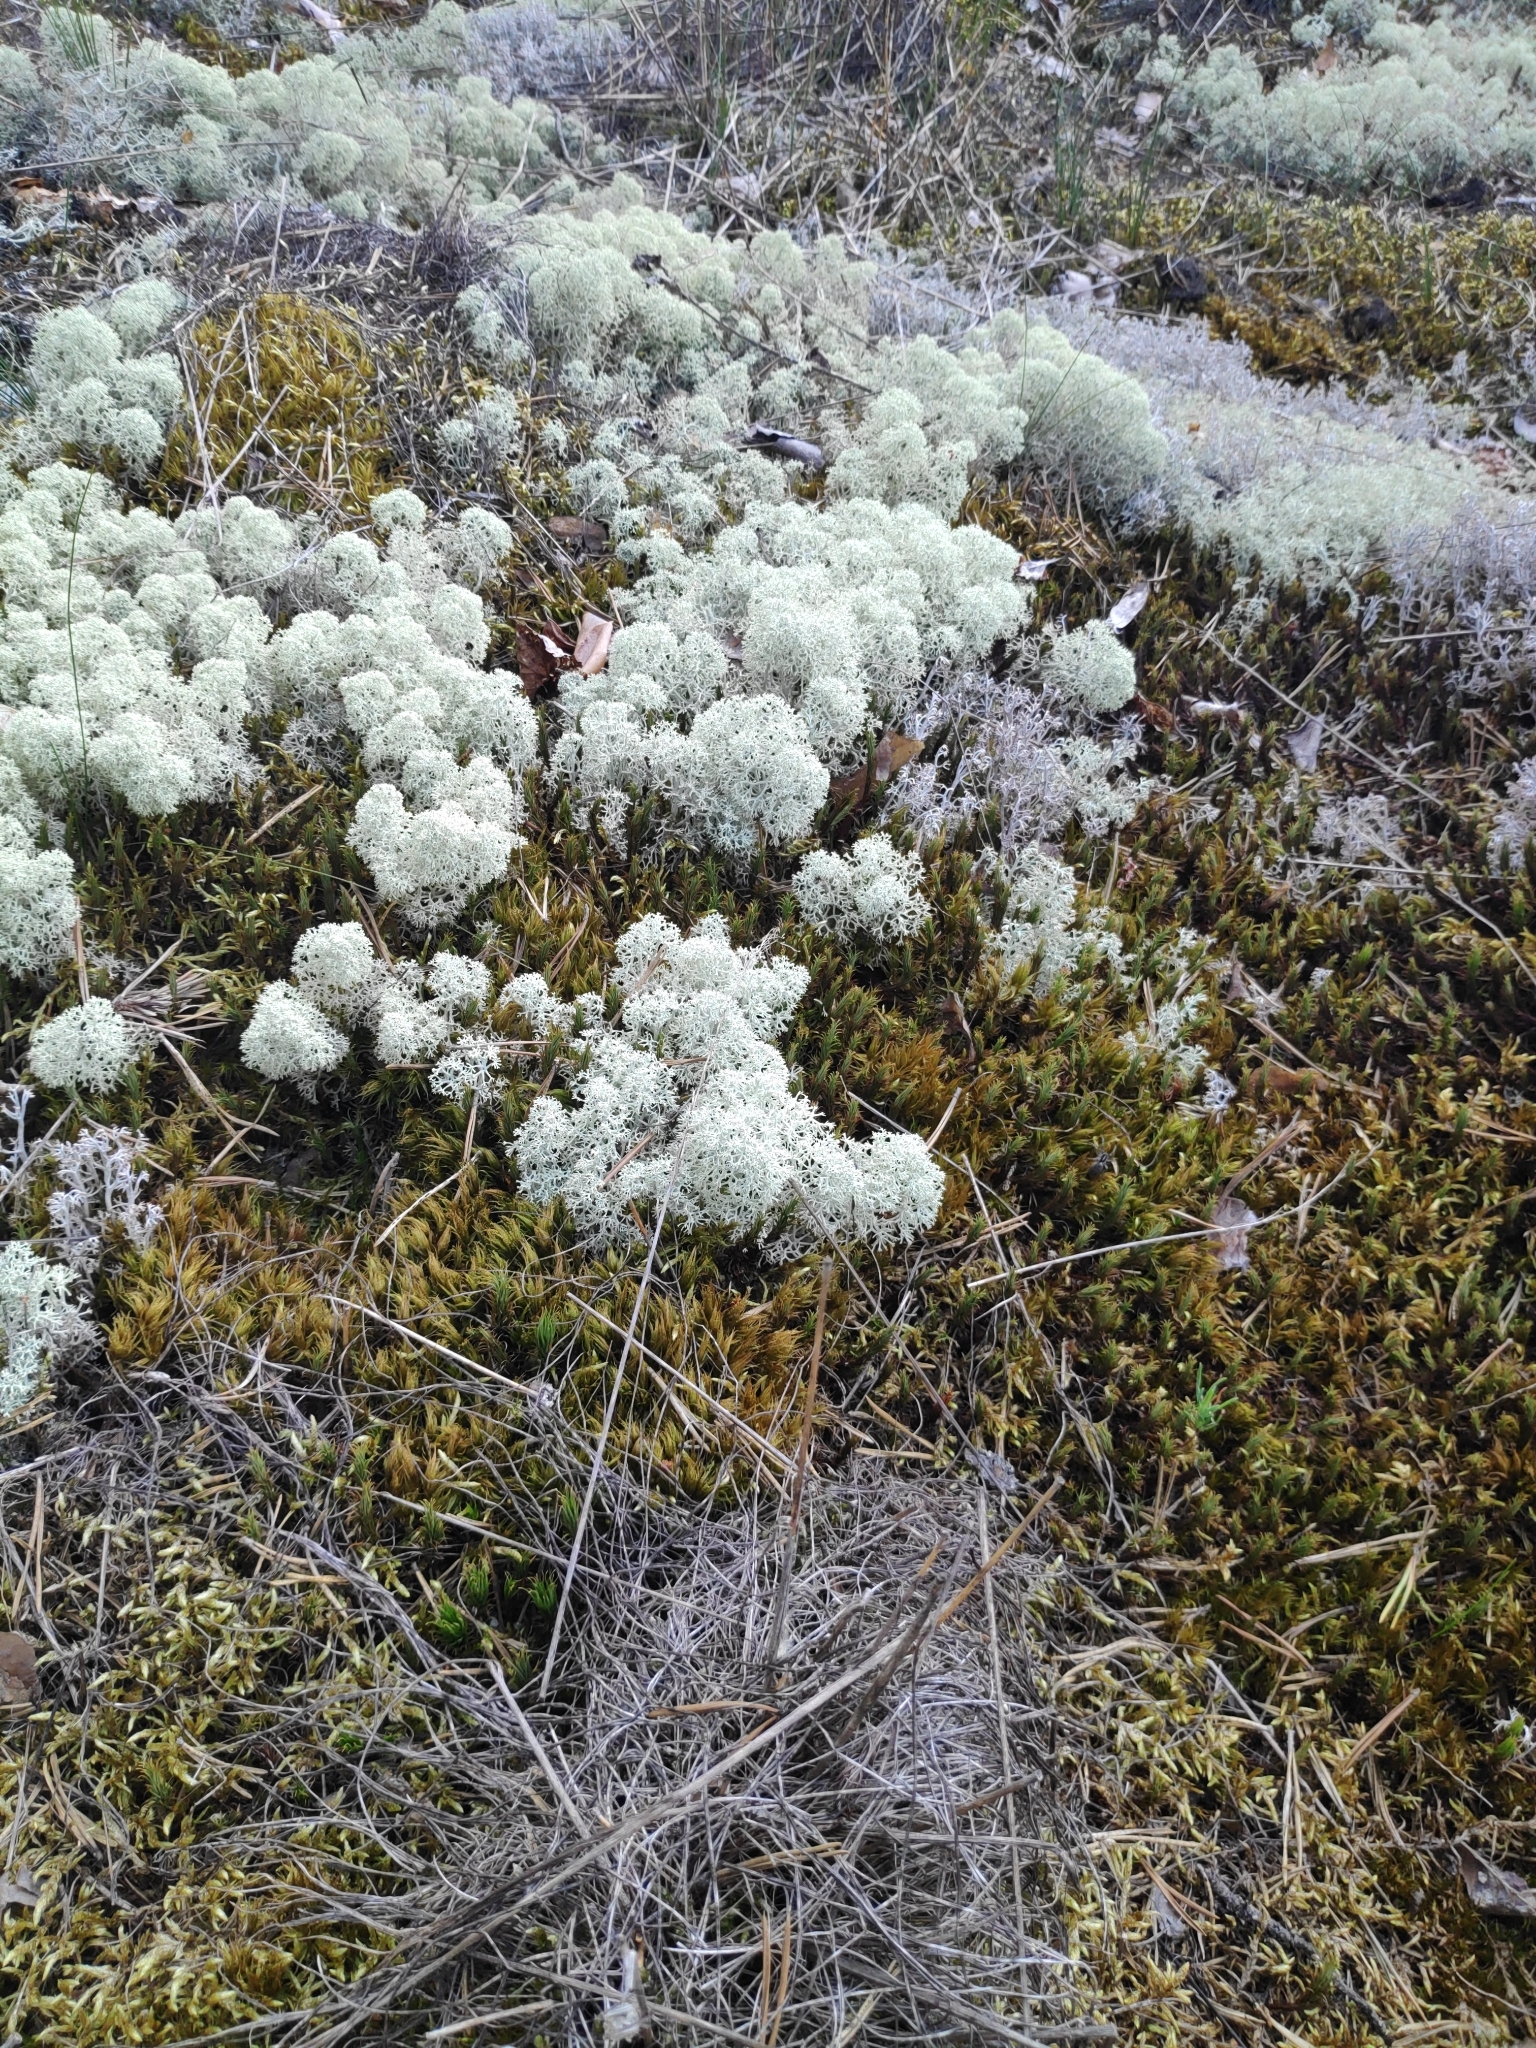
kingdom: Fungi
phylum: Ascomycota
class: Lecanoromycetes
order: Lecanorales
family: Cladoniaceae
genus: Cladonia
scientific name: Cladonia stellaris
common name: Star-tipped reindeer lichen
